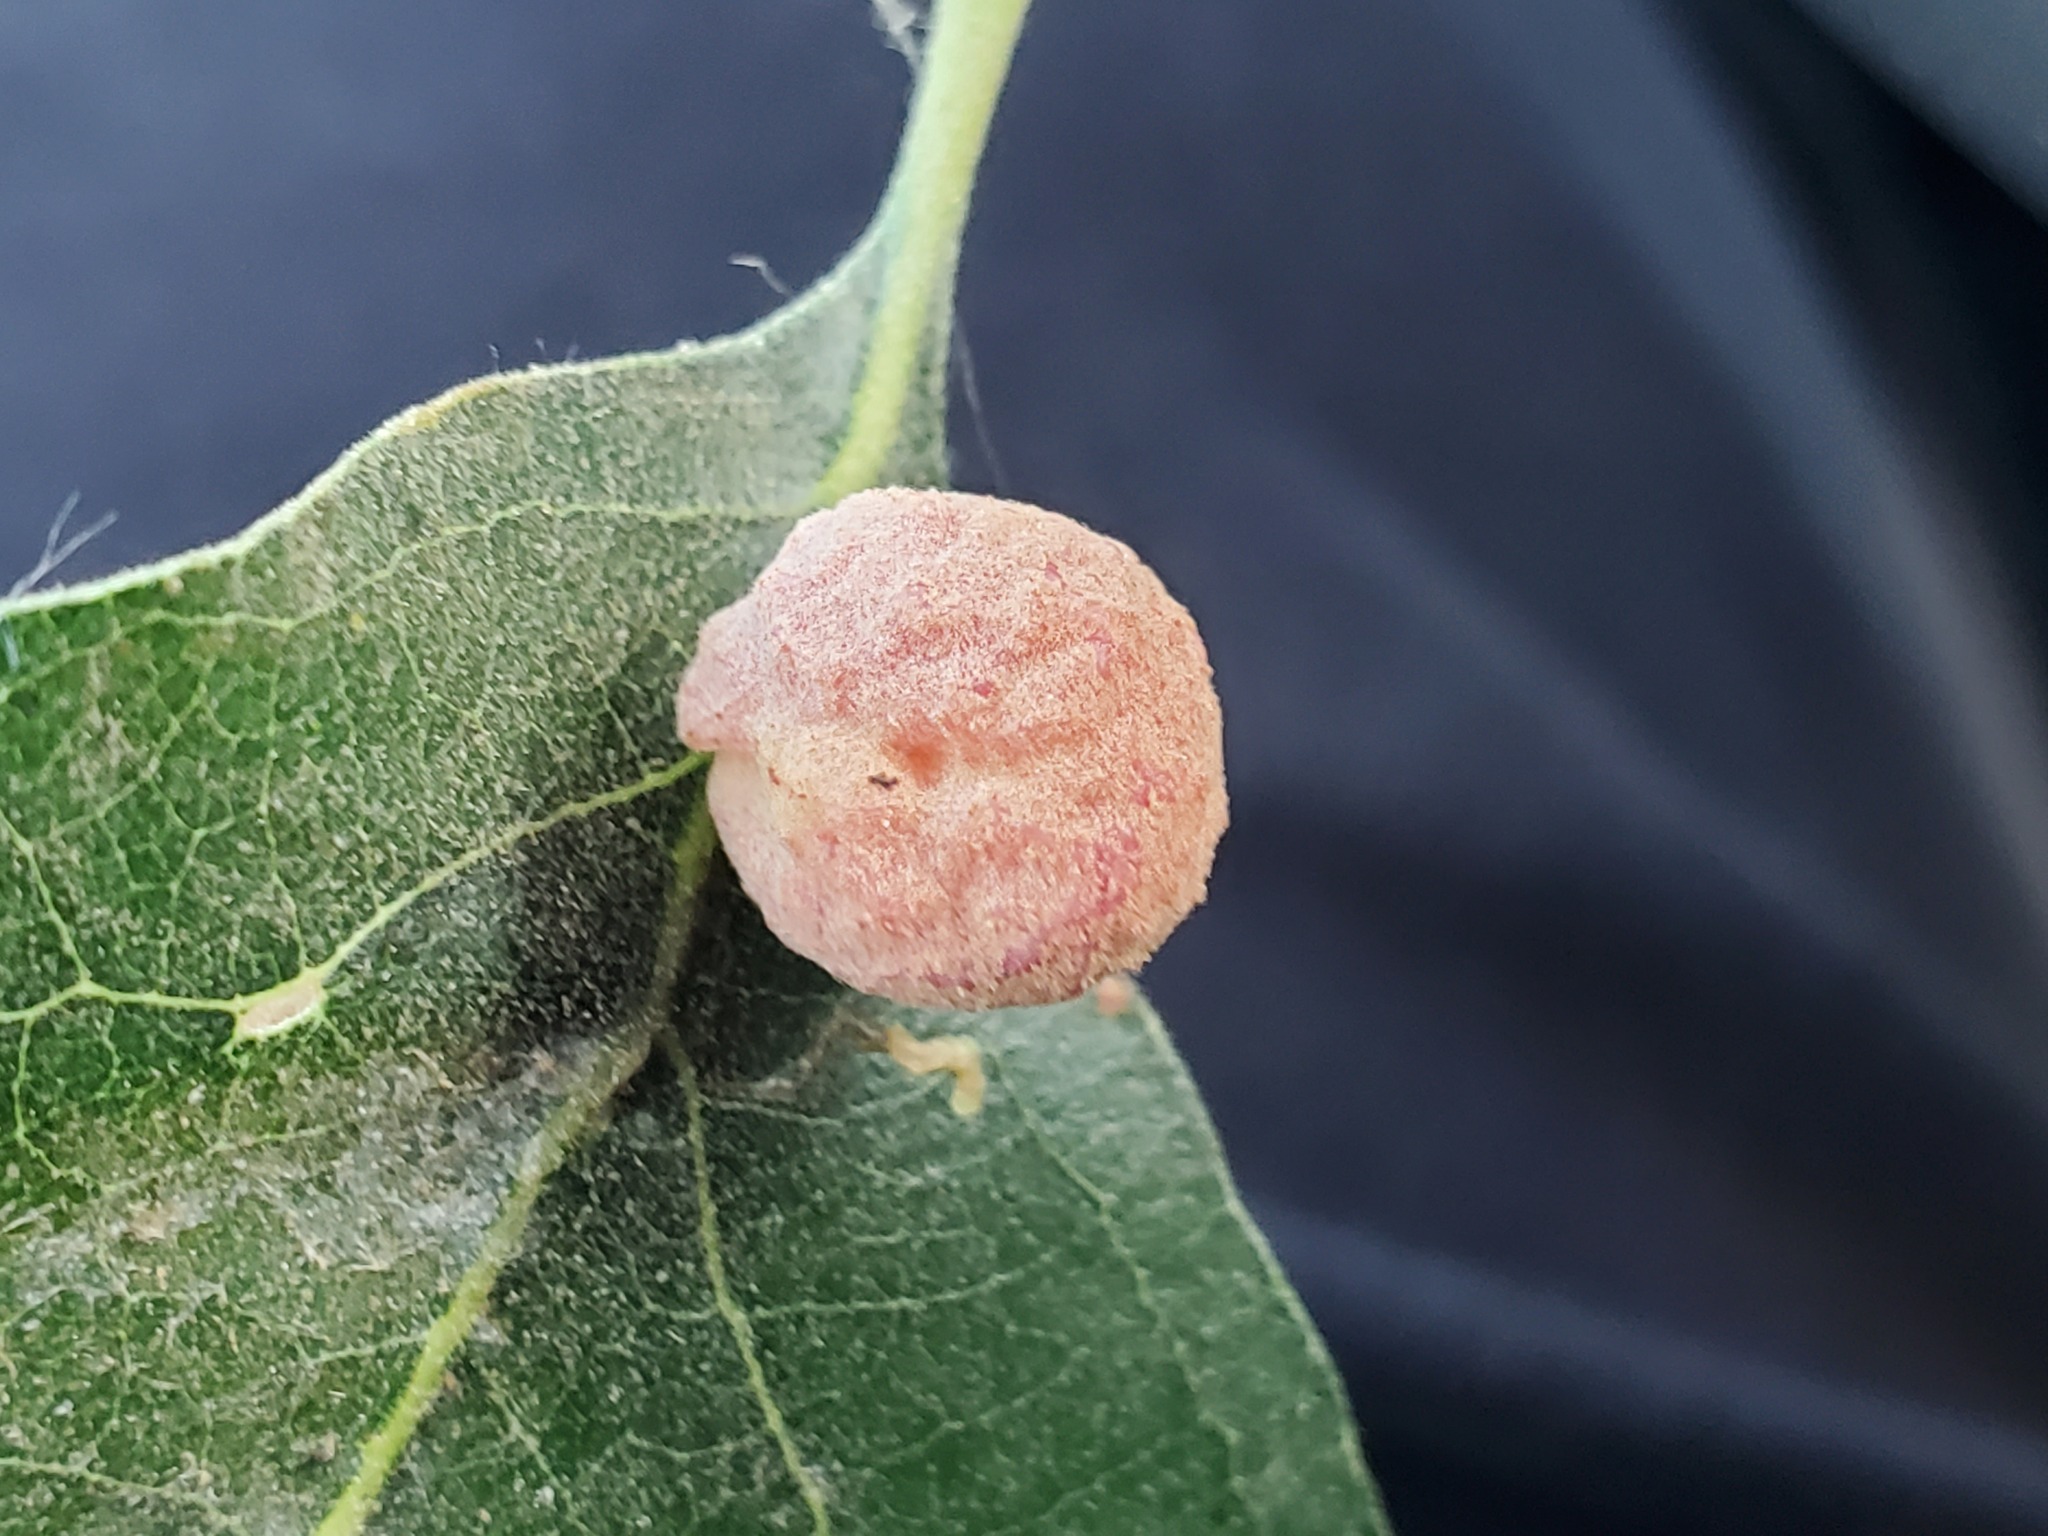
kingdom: Animalia
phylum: Arthropoda
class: Insecta
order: Hymenoptera
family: Cynipidae
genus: Cynips
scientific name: Cynips conspicua
